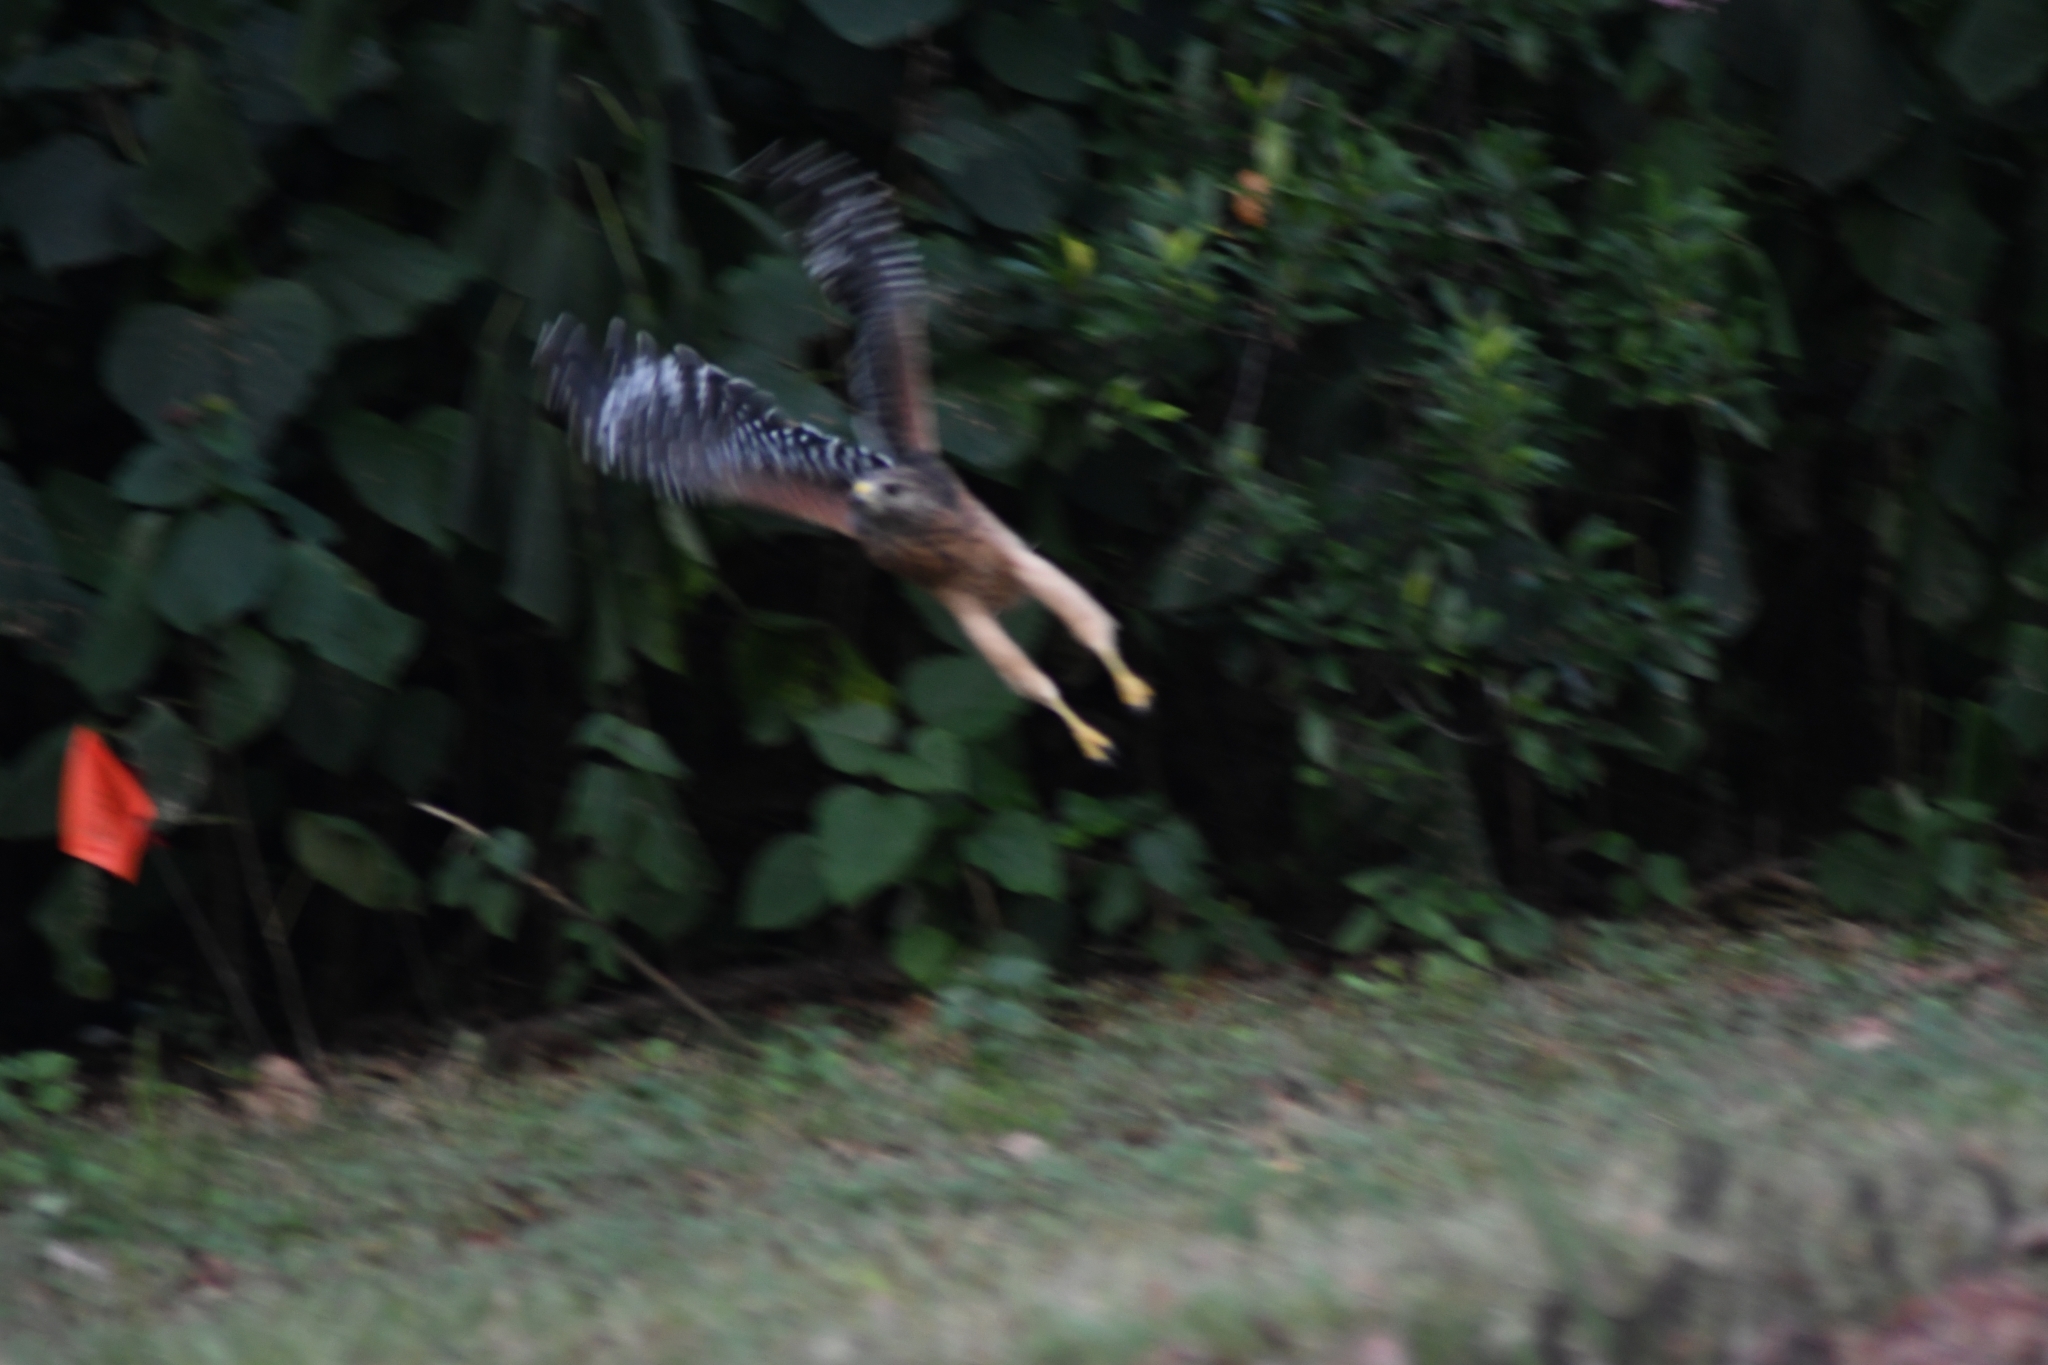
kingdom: Animalia
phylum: Chordata
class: Aves
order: Accipitriformes
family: Accipitridae
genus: Buteo
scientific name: Buteo lineatus
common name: Red-shouldered hawk
